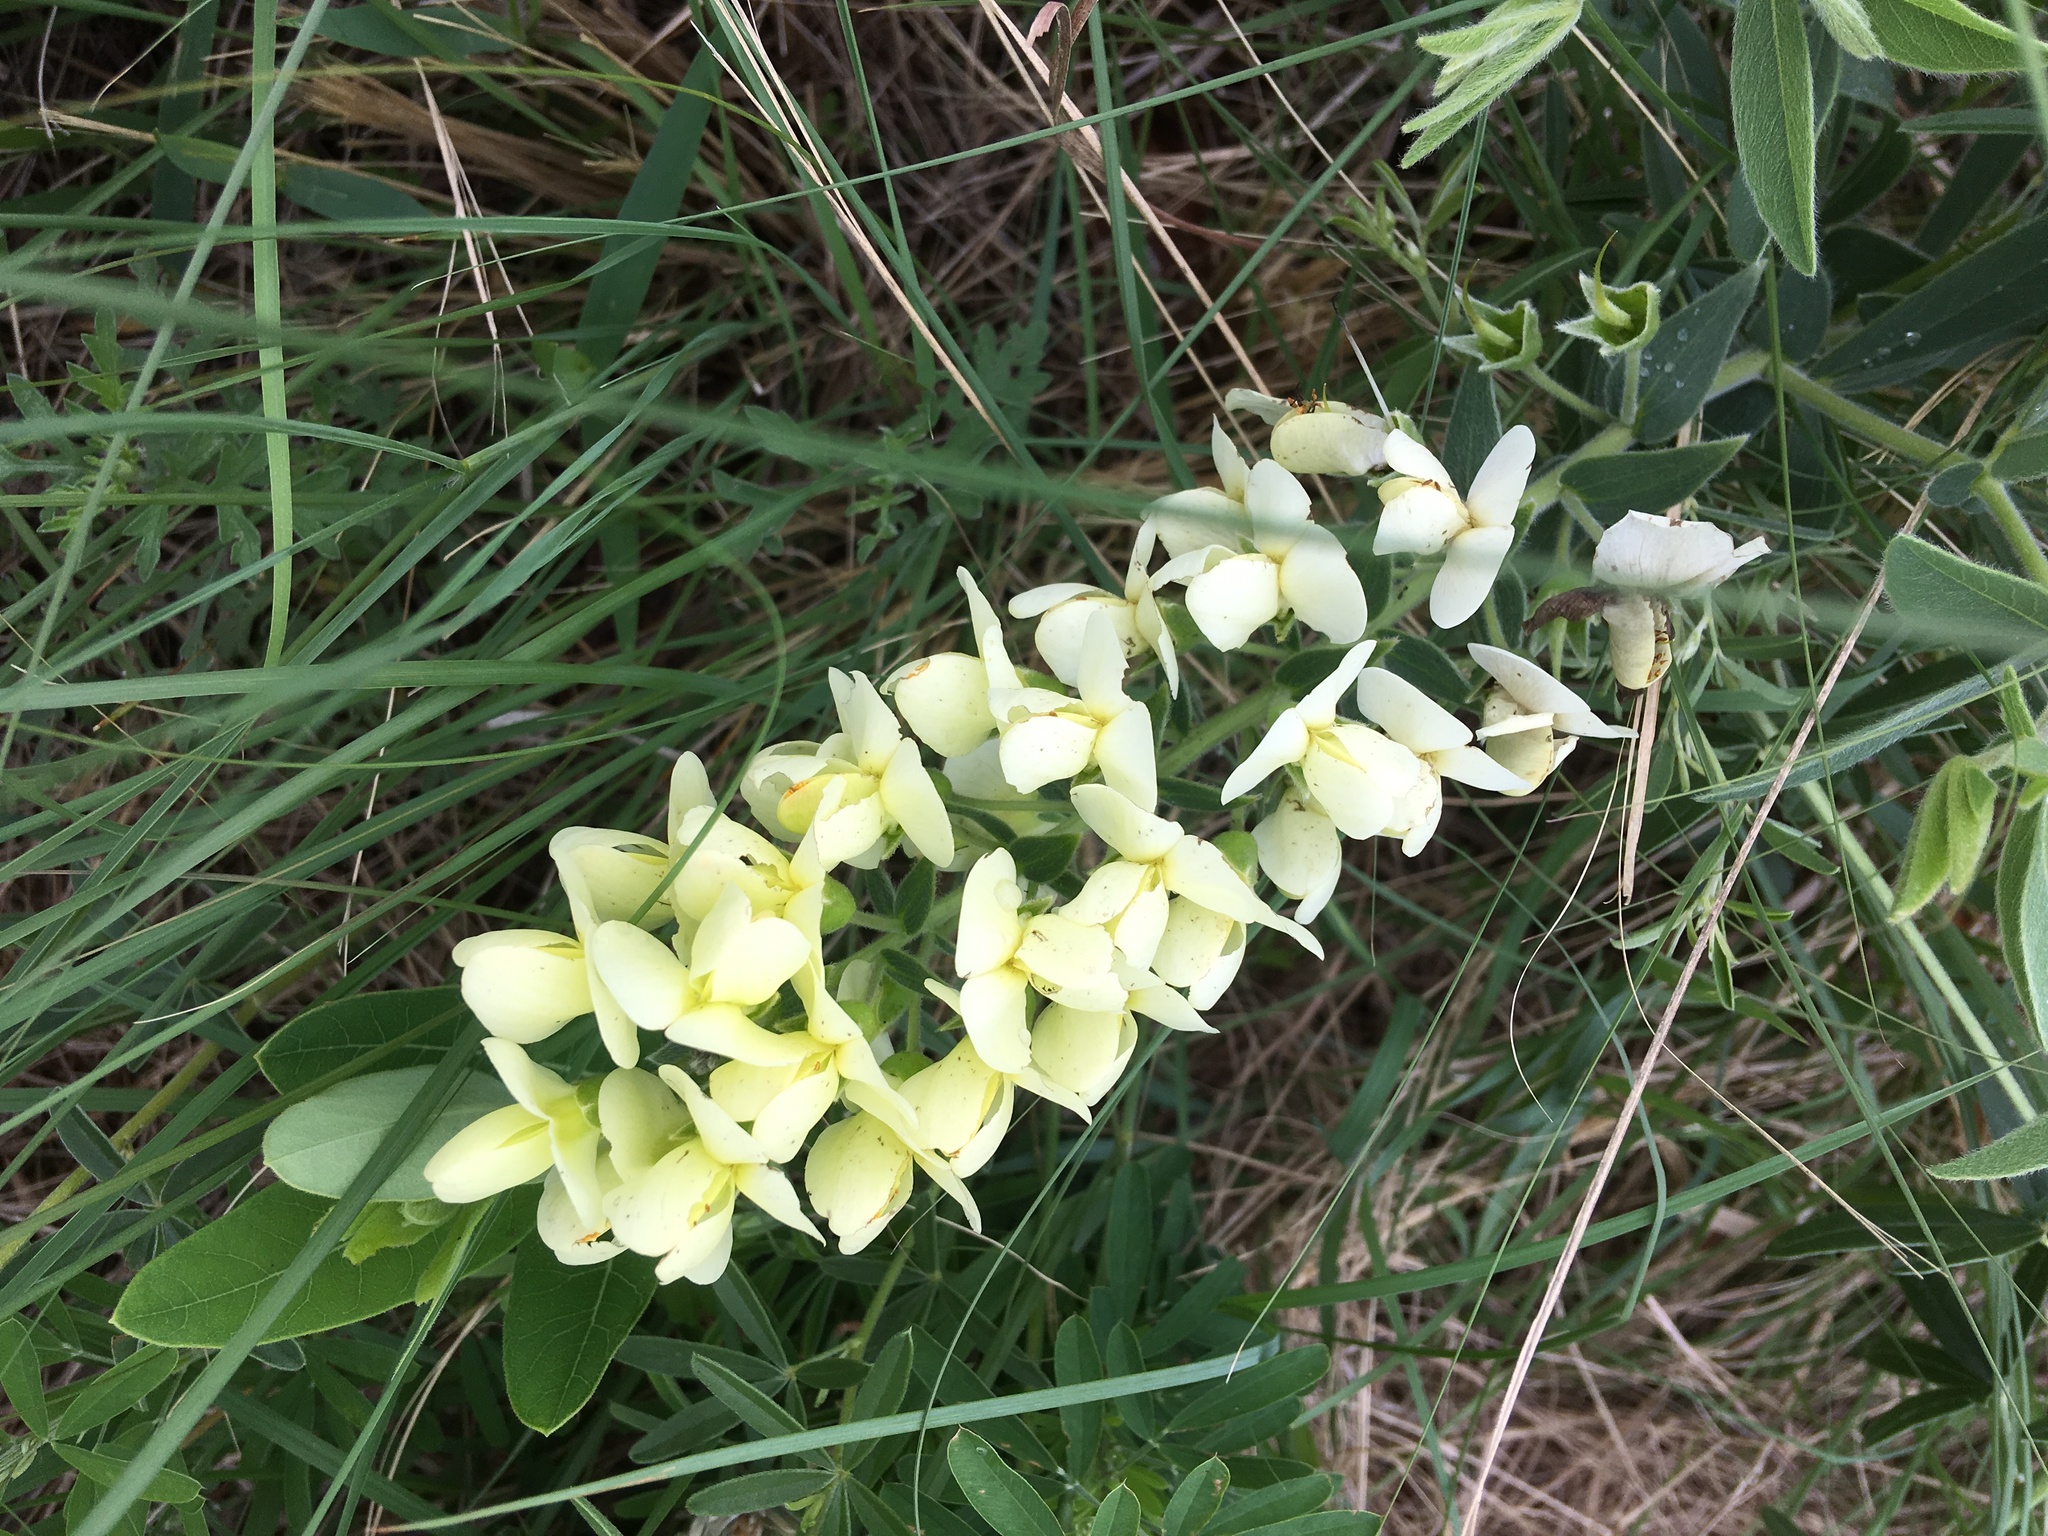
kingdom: Plantae
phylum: Tracheophyta
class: Magnoliopsida
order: Fabales
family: Fabaceae
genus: Baptisia
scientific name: Baptisia bracteata
